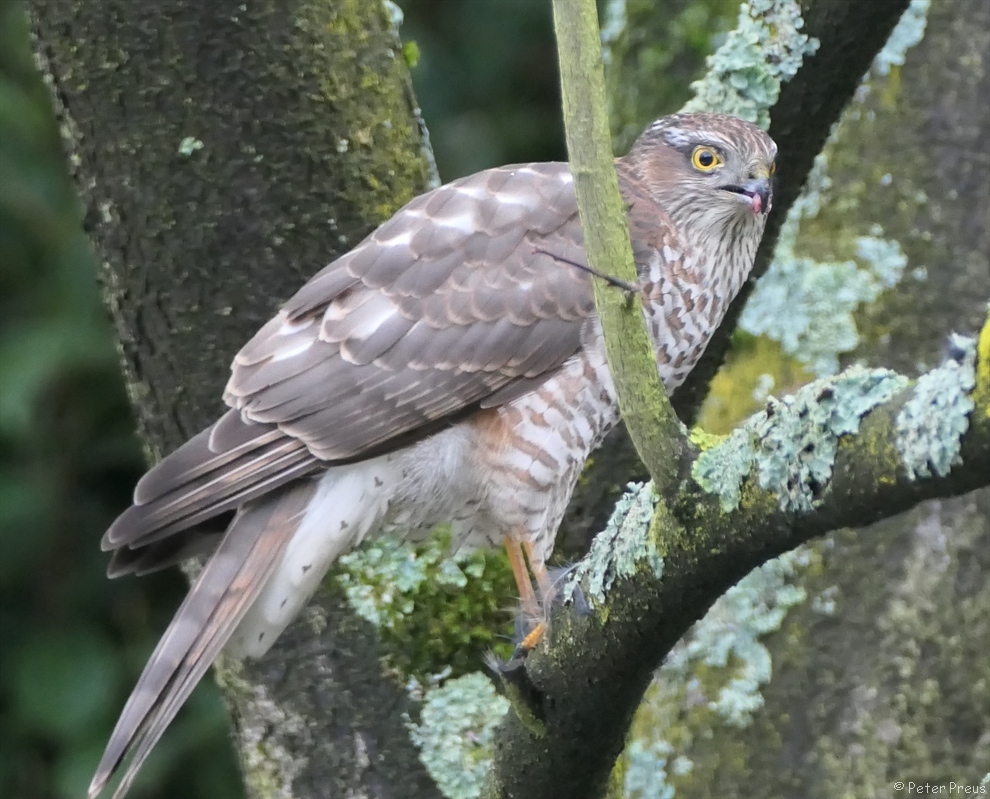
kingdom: Animalia
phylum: Chordata
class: Aves
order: Accipitriformes
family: Accipitridae
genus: Accipiter
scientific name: Accipiter nisus
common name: Eurasian sparrowhawk
